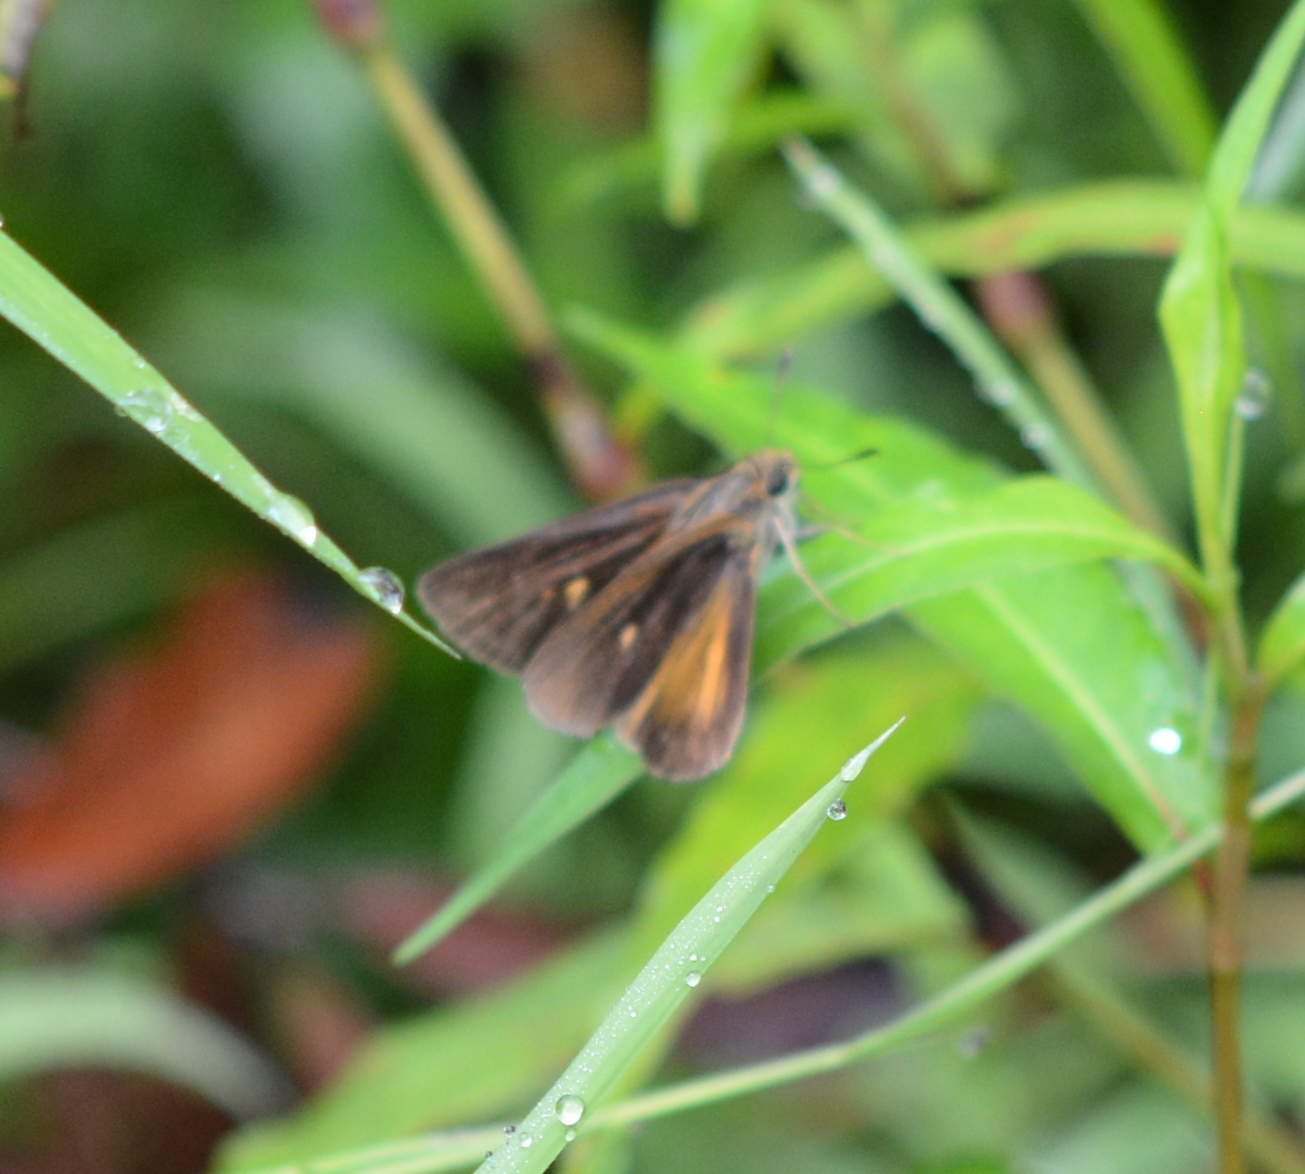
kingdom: Animalia
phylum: Arthropoda
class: Insecta
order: Lepidoptera
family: Hesperiidae
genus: Euphyes
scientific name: Euphyes dukesi
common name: Dukes' skipper
